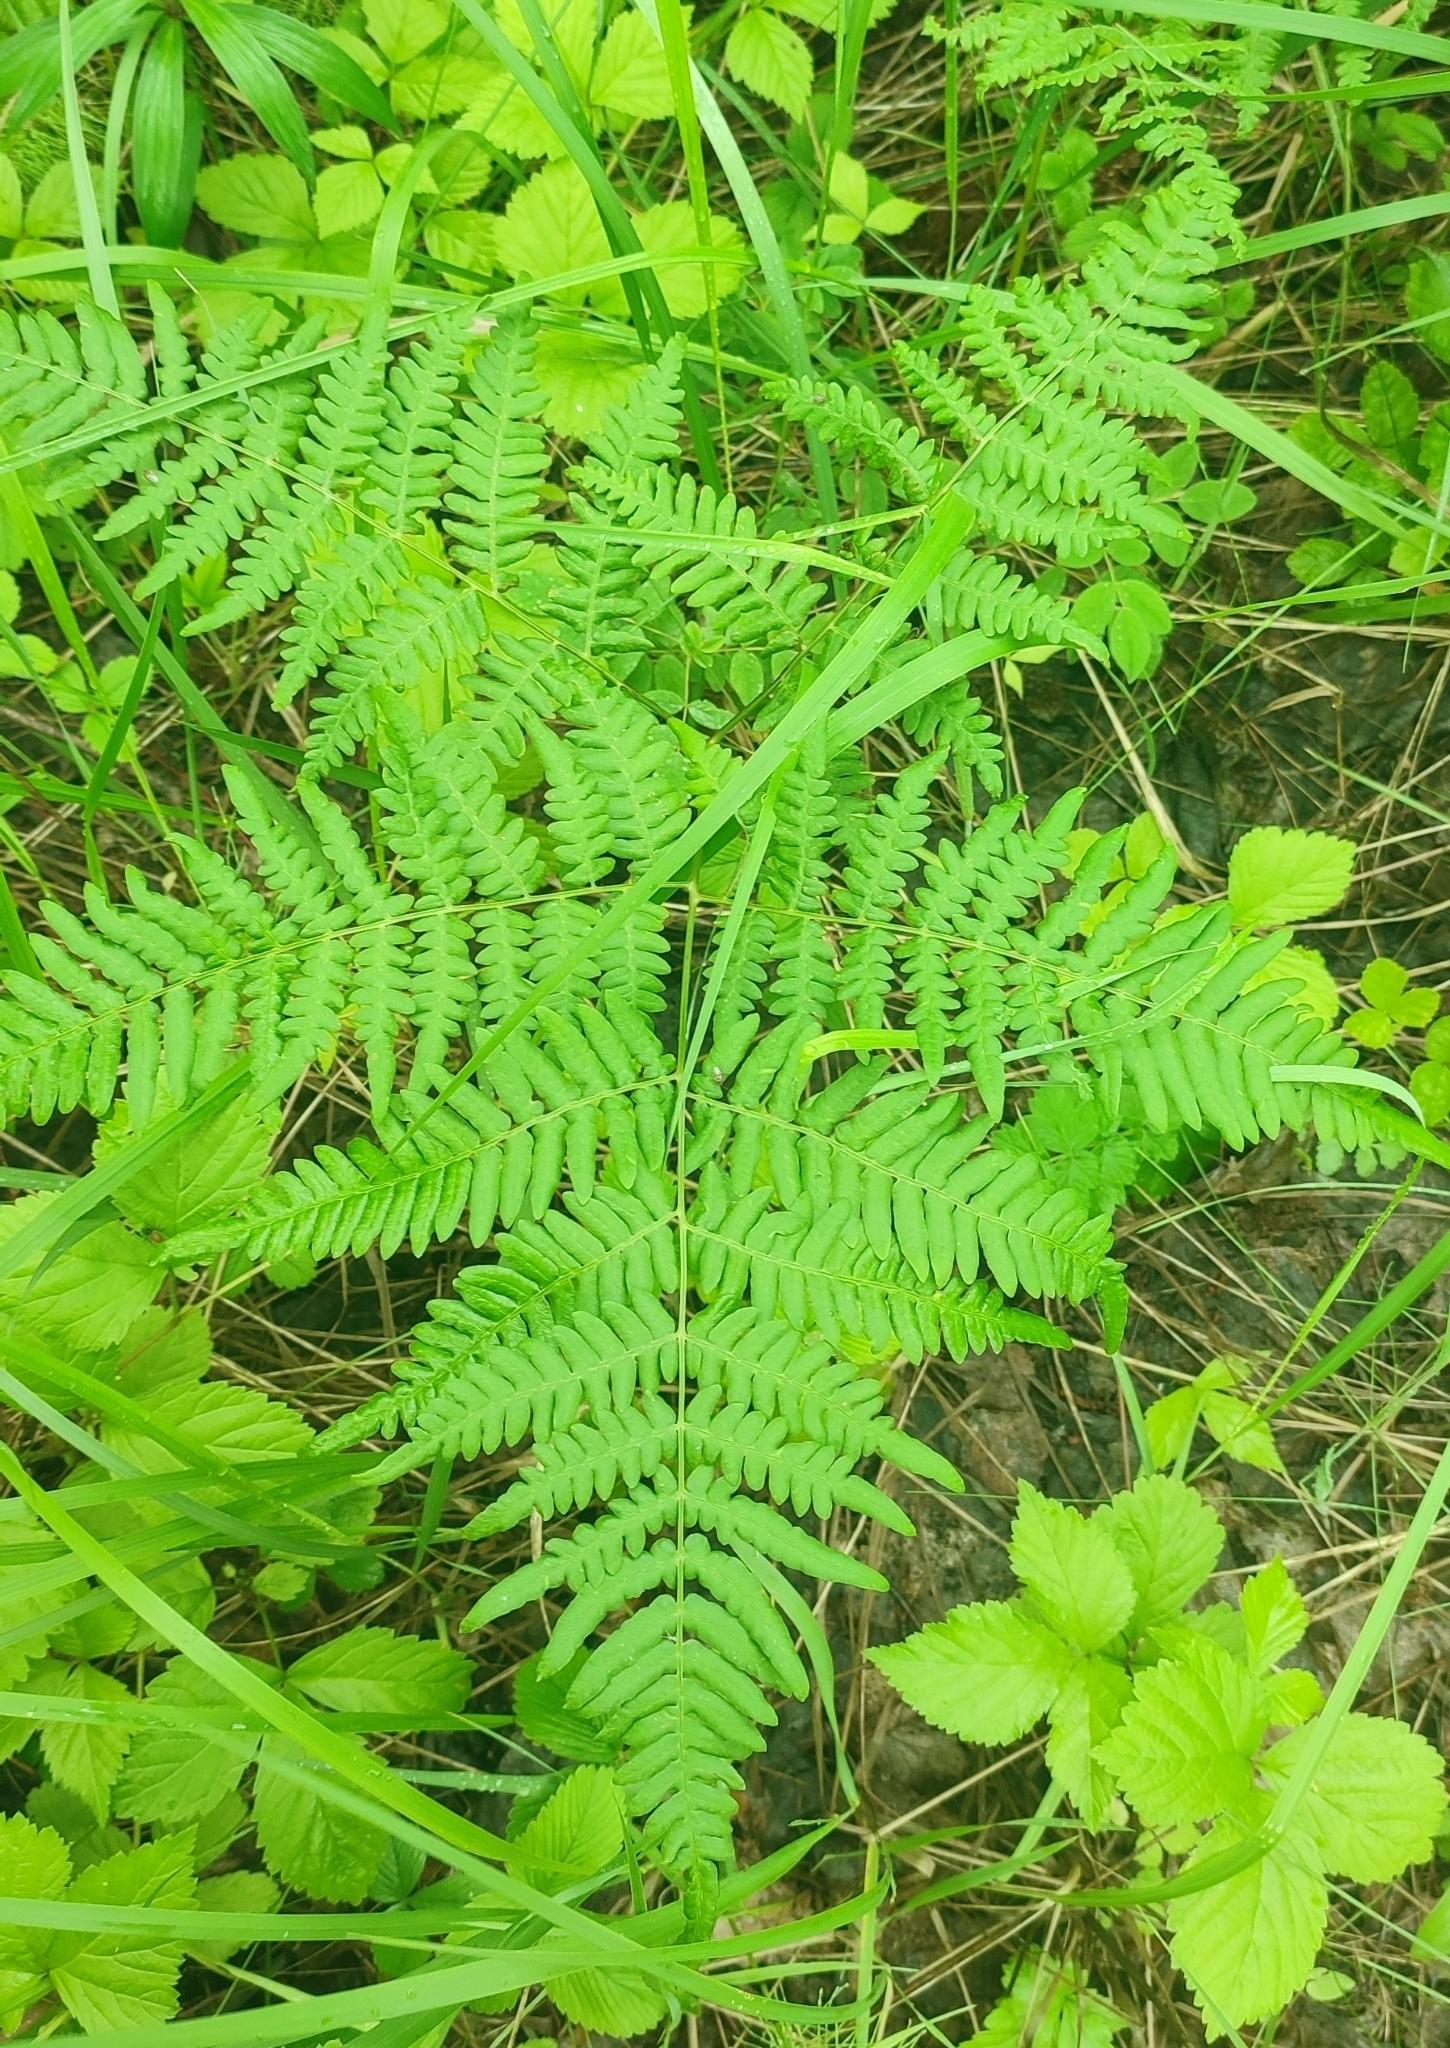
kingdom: Plantae
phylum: Tracheophyta
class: Polypodiopsida
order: Polypodiales
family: Dennstaedtiaceae
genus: Pteridium
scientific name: Pteridium aquilinum
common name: Bracken
